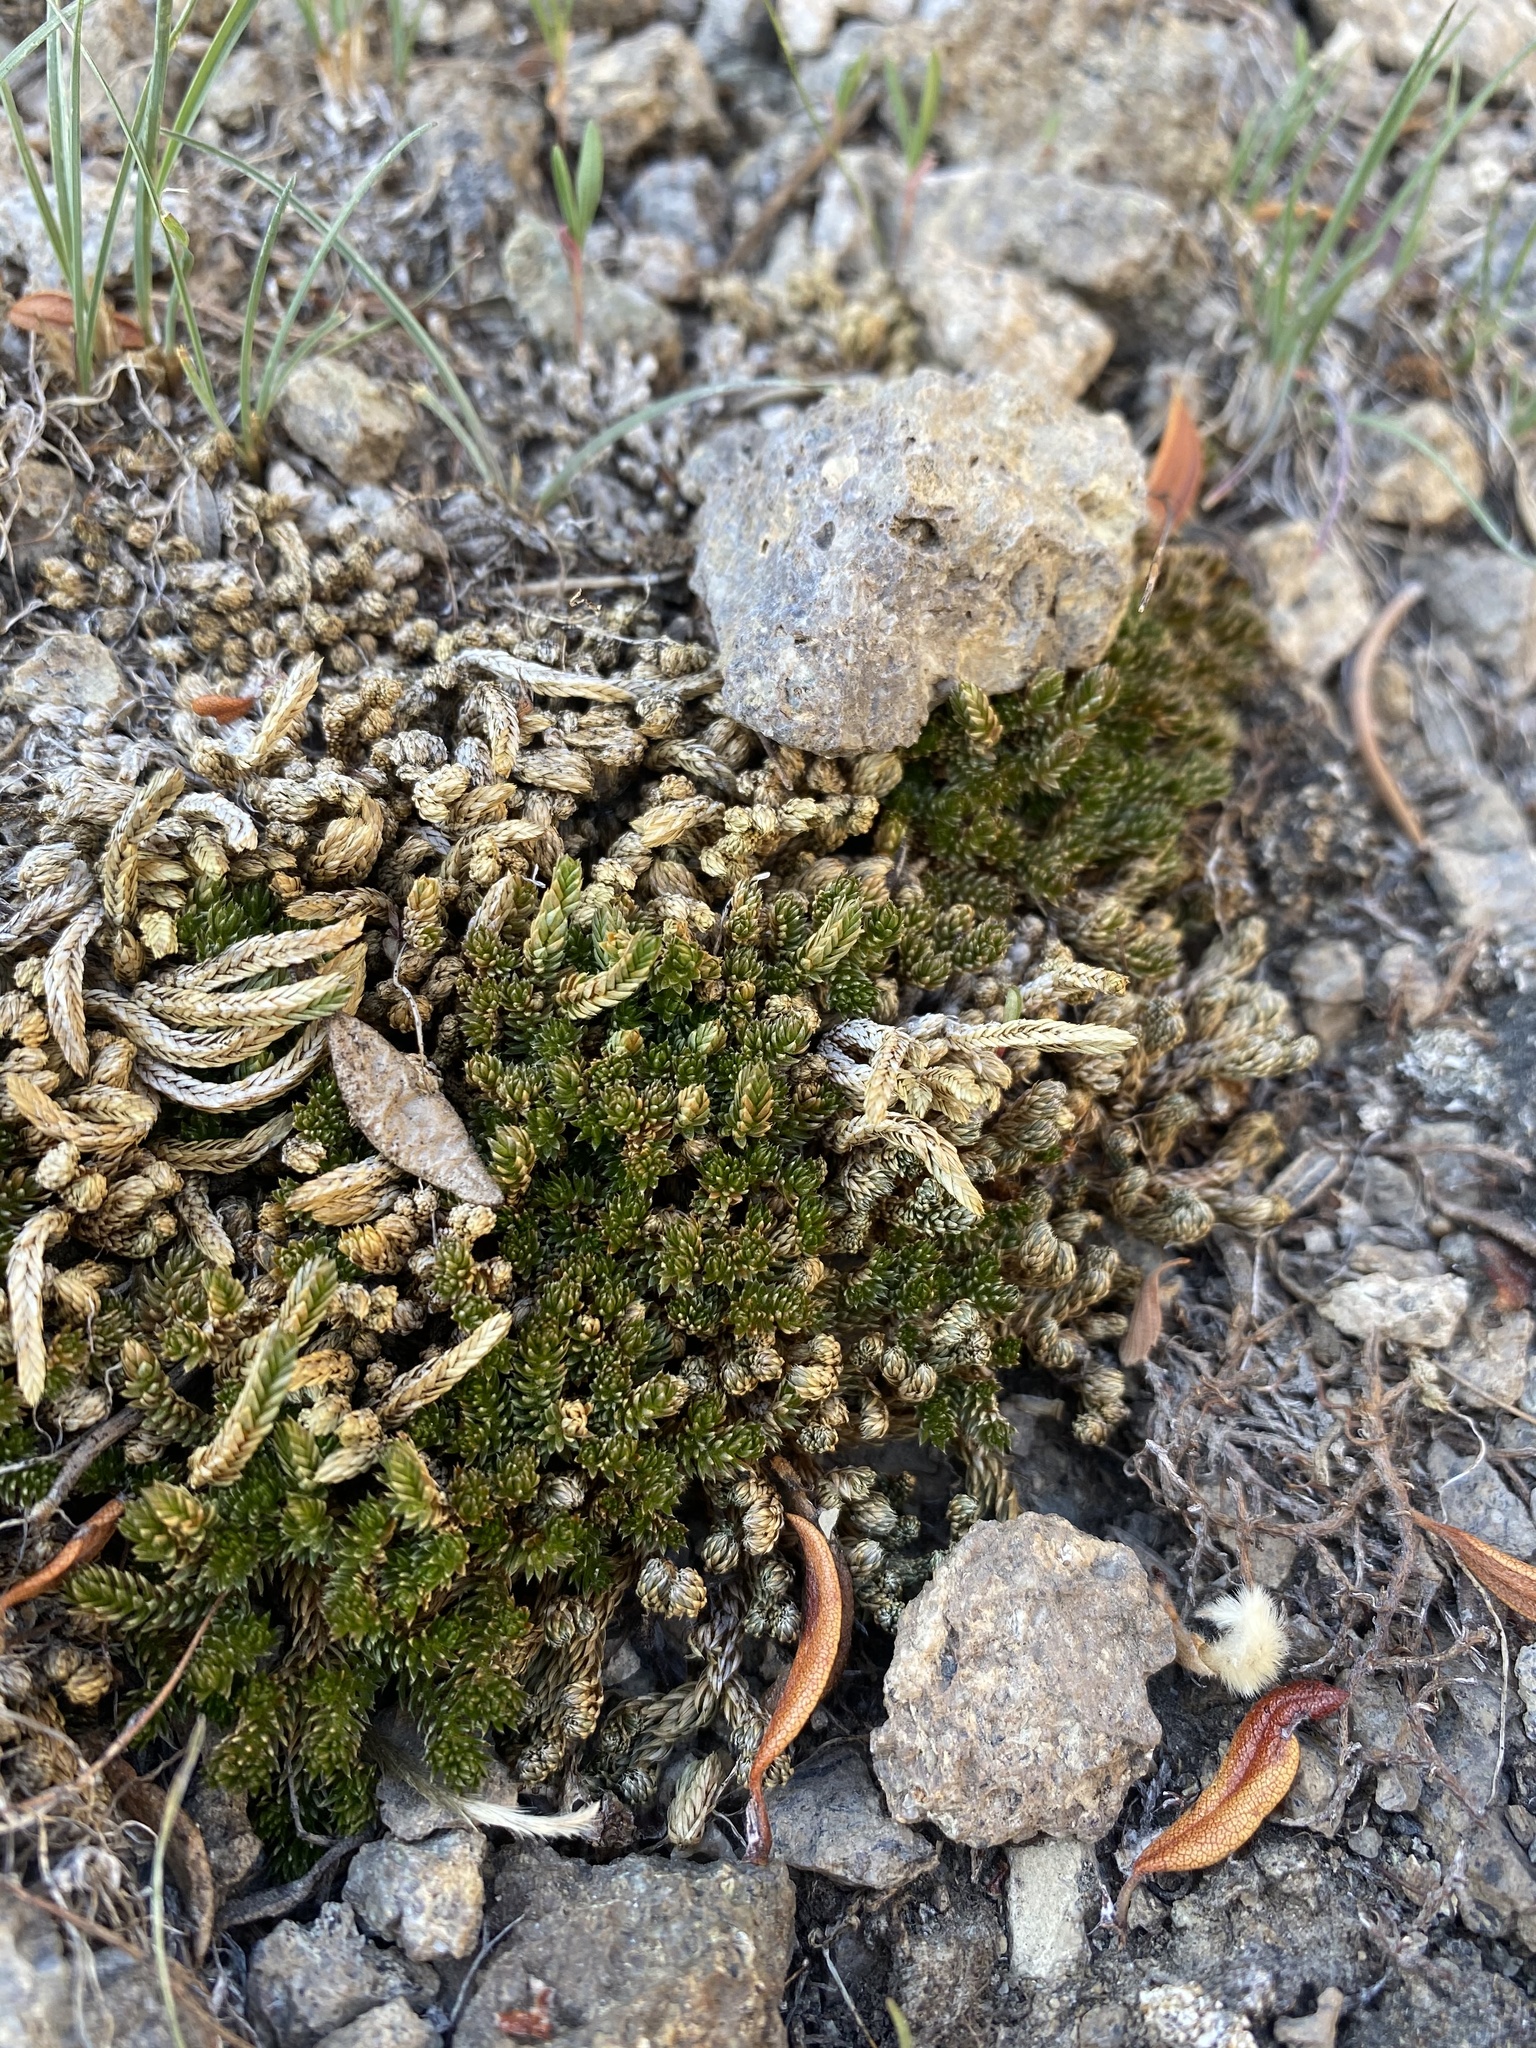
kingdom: Plantae
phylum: Tracheophyta
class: Lycopodiopsida
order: Selaginellales
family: Selaginellaceae
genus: Selaginella
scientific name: Selaginella watsonii
